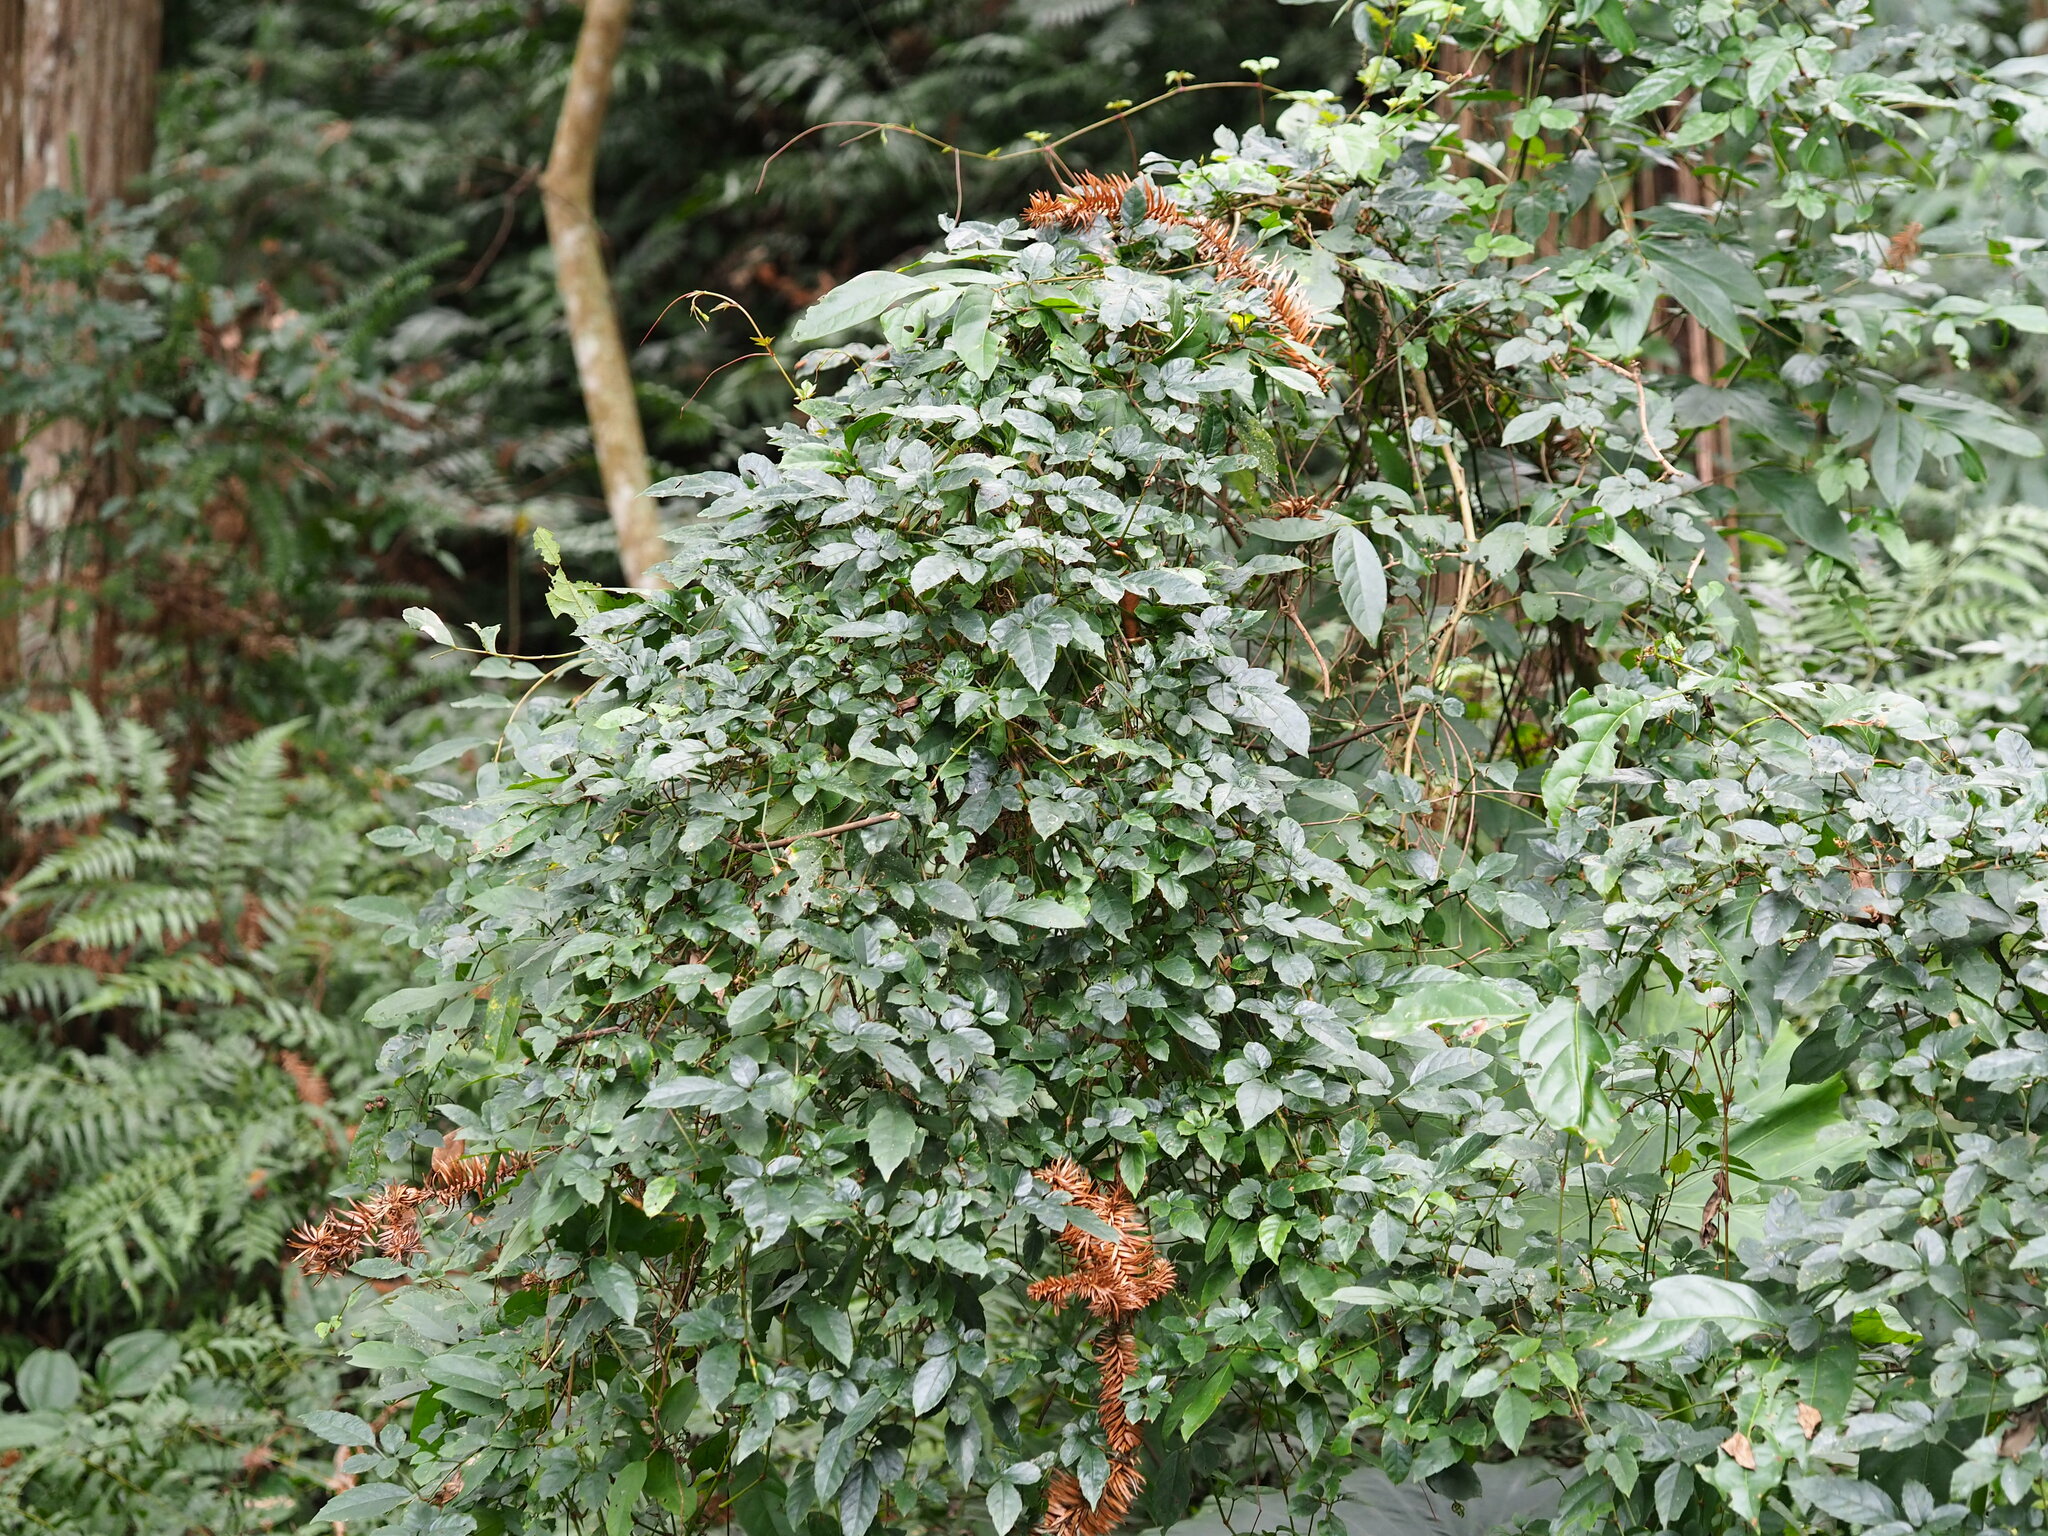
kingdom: Plantae
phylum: Tracheophyta
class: Magnoliopsida
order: Vitales
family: Vitaceae
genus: Causonis
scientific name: Causonis corniculata
